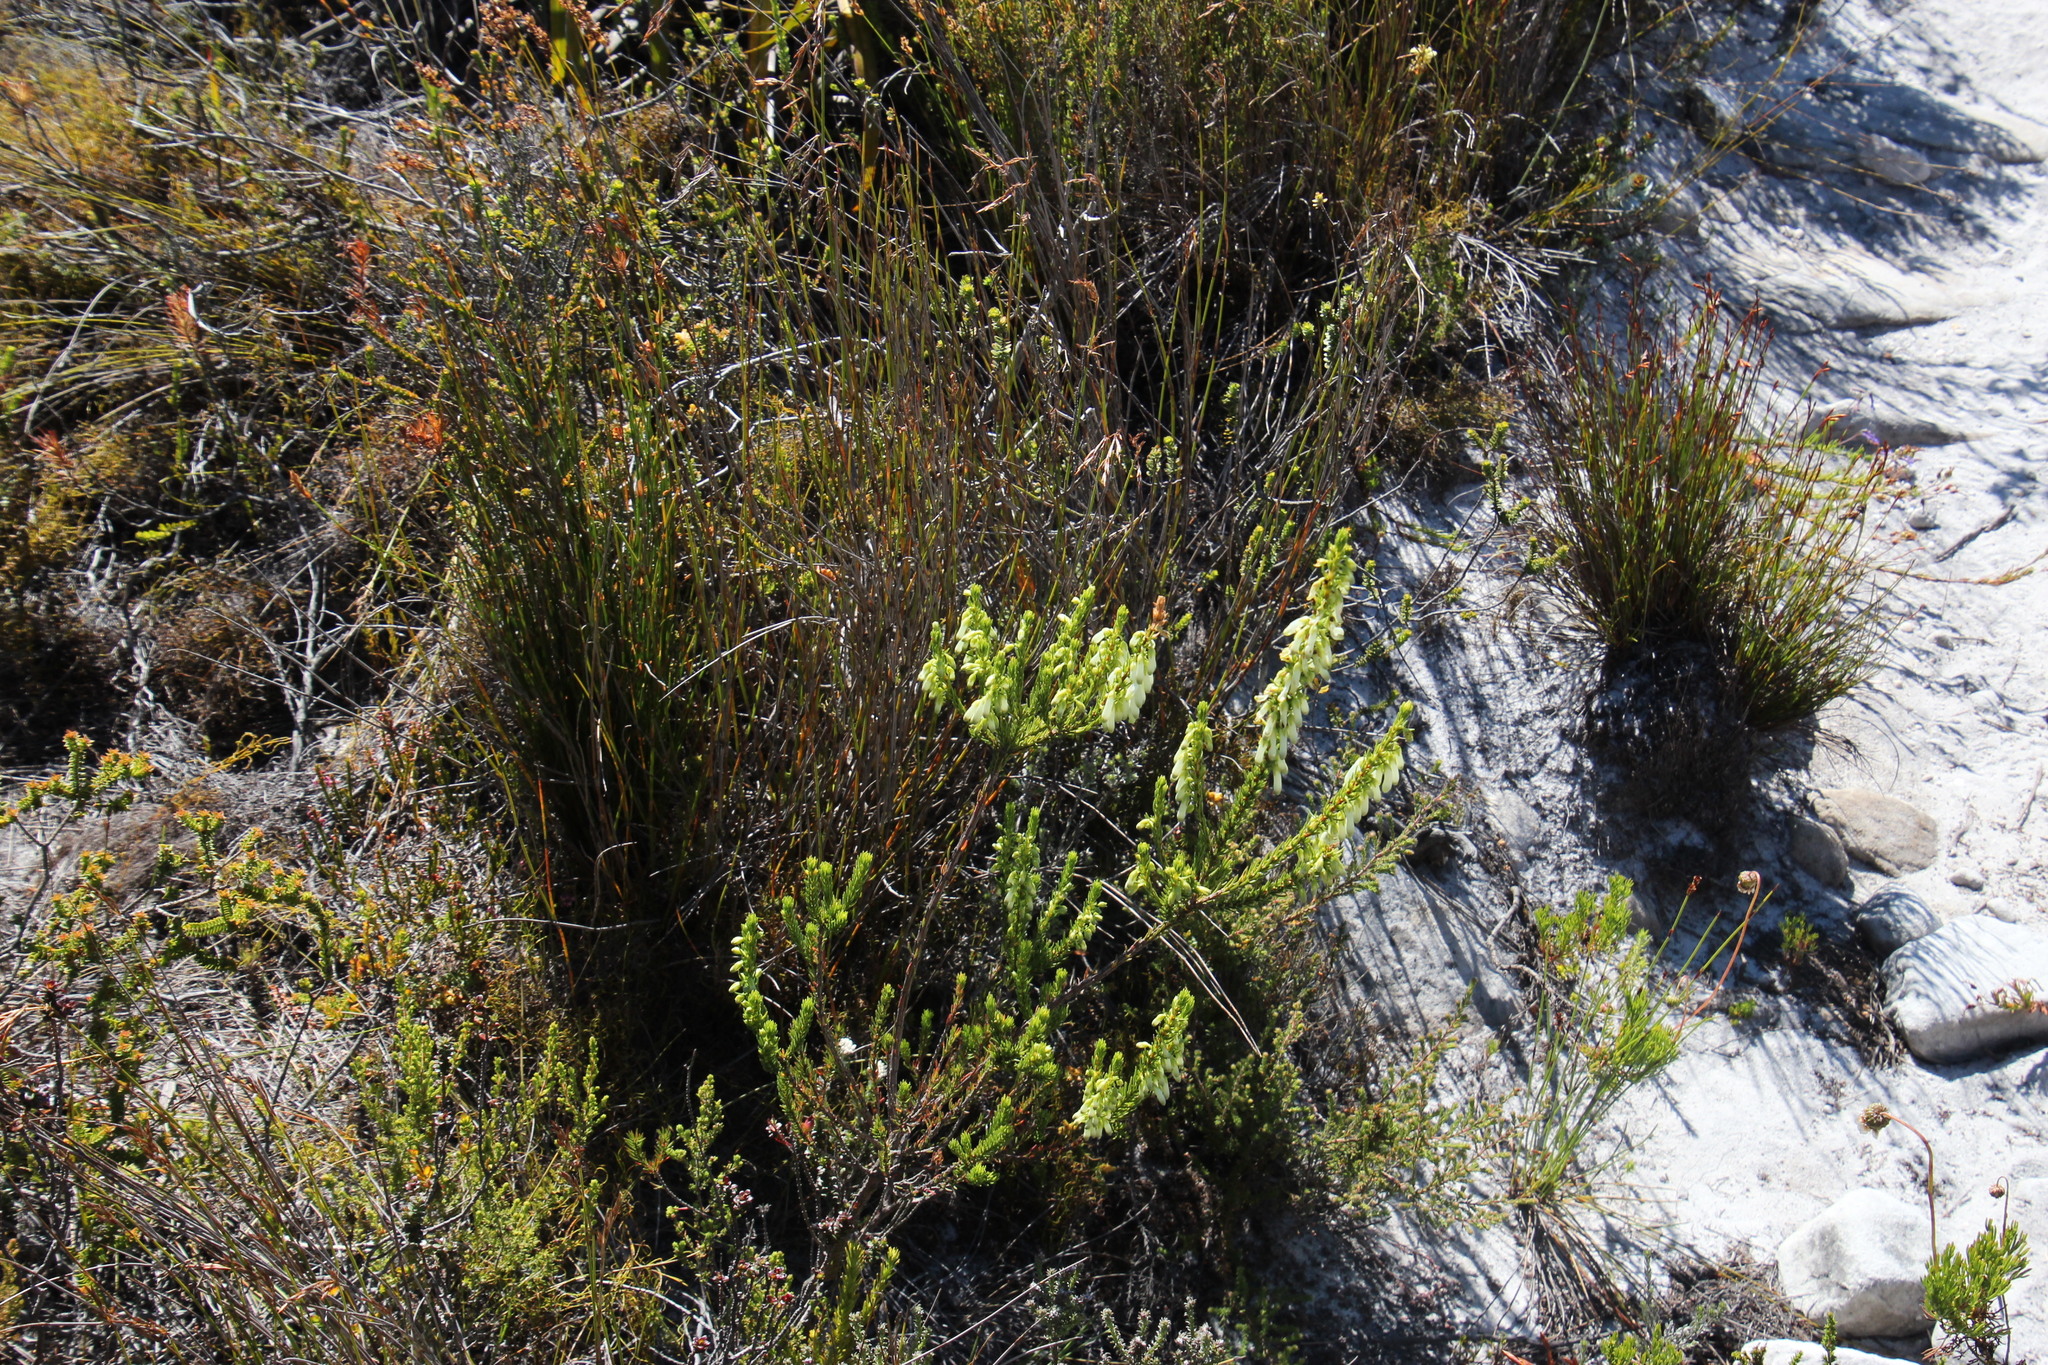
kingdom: Plantae
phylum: Tracheophyta
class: Magnoliopsida
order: Ericales
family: Ericaceae
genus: Erica
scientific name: Erica mammosa
